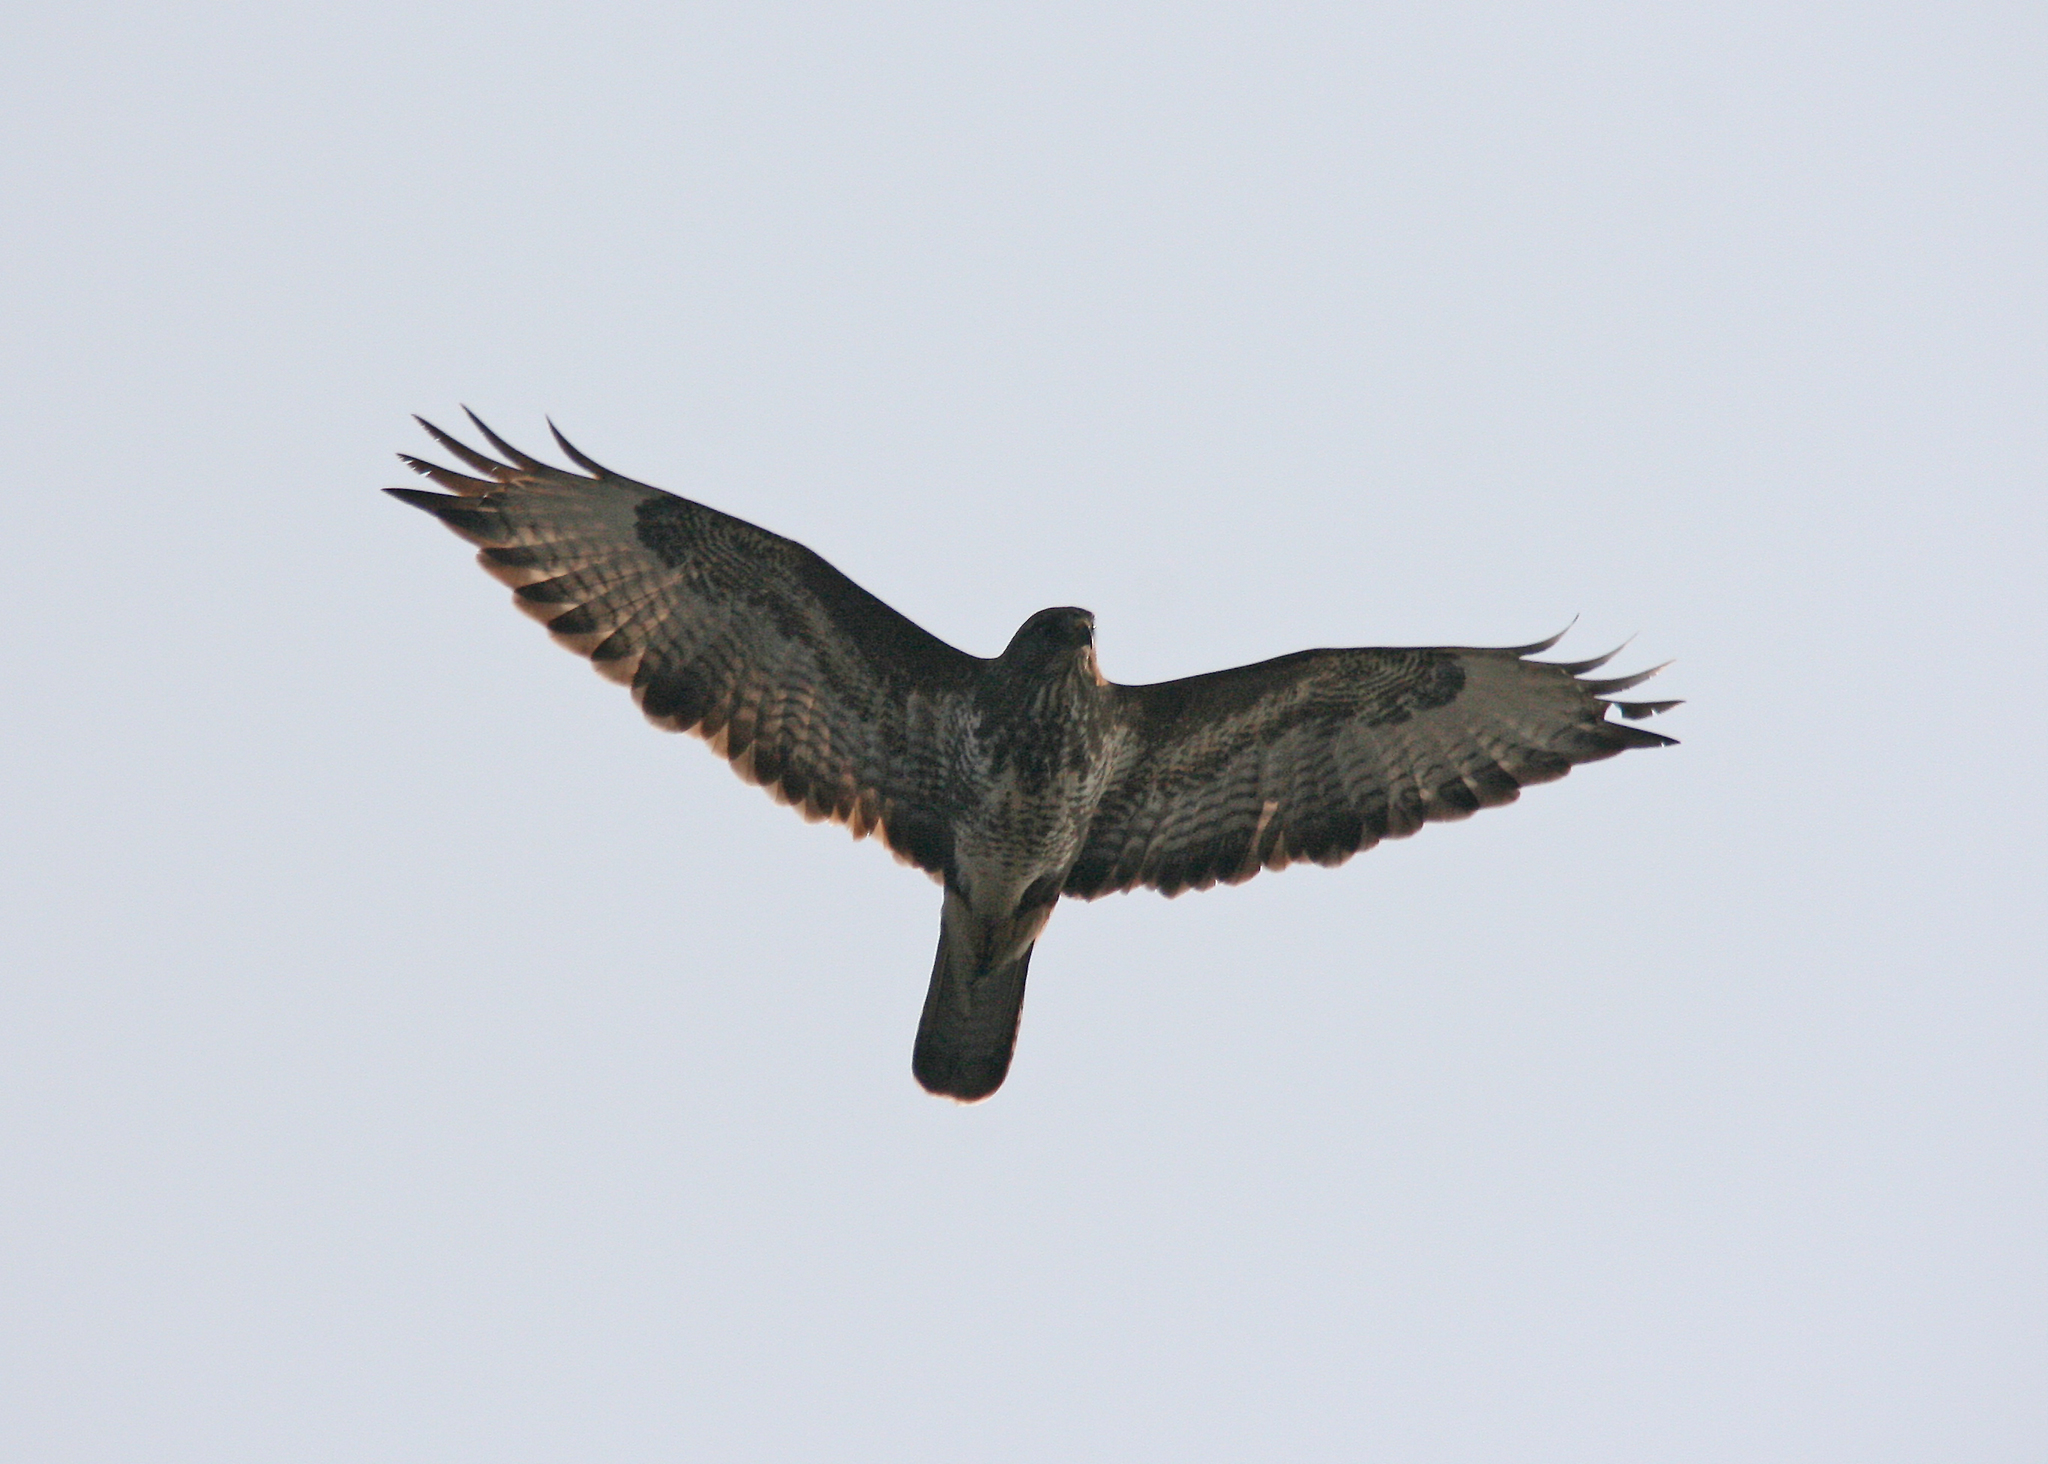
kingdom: Animalia
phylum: Chordata
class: Aves
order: Accipitriformes
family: Accipitridae
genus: Buteo
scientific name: Buteo buteo
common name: Common buzzard
